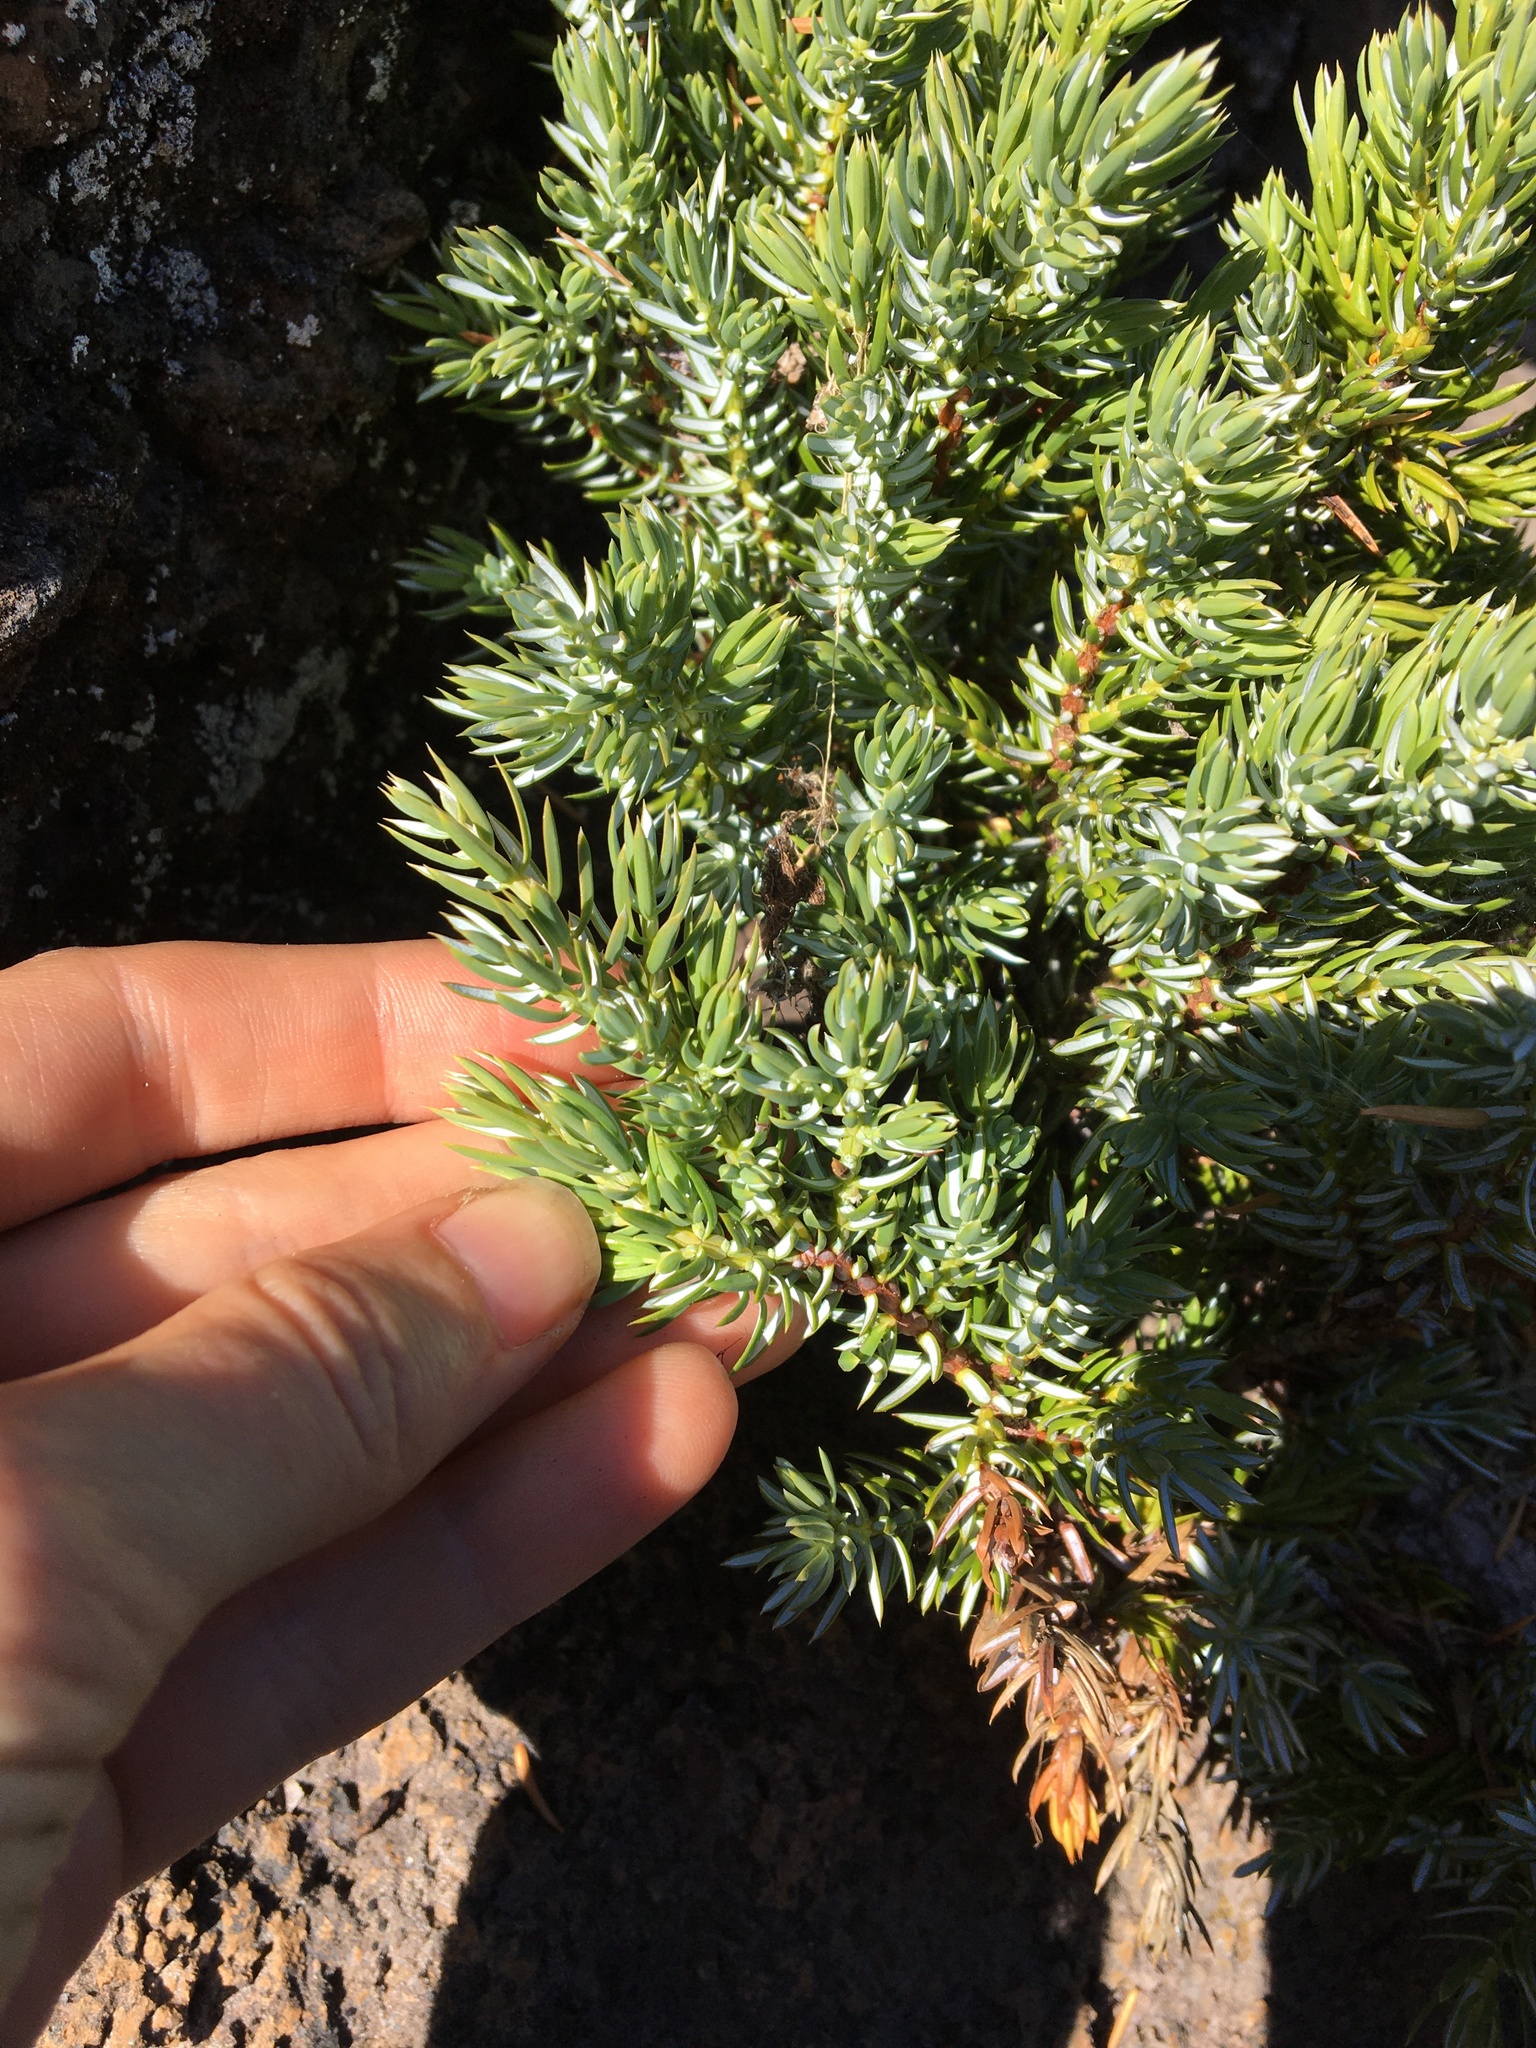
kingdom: Plantae
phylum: Tracheophyta
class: Pinopsida
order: Pinales
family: Cupressaceae
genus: Juniperus
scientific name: Juniperus communis
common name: Common juniper
